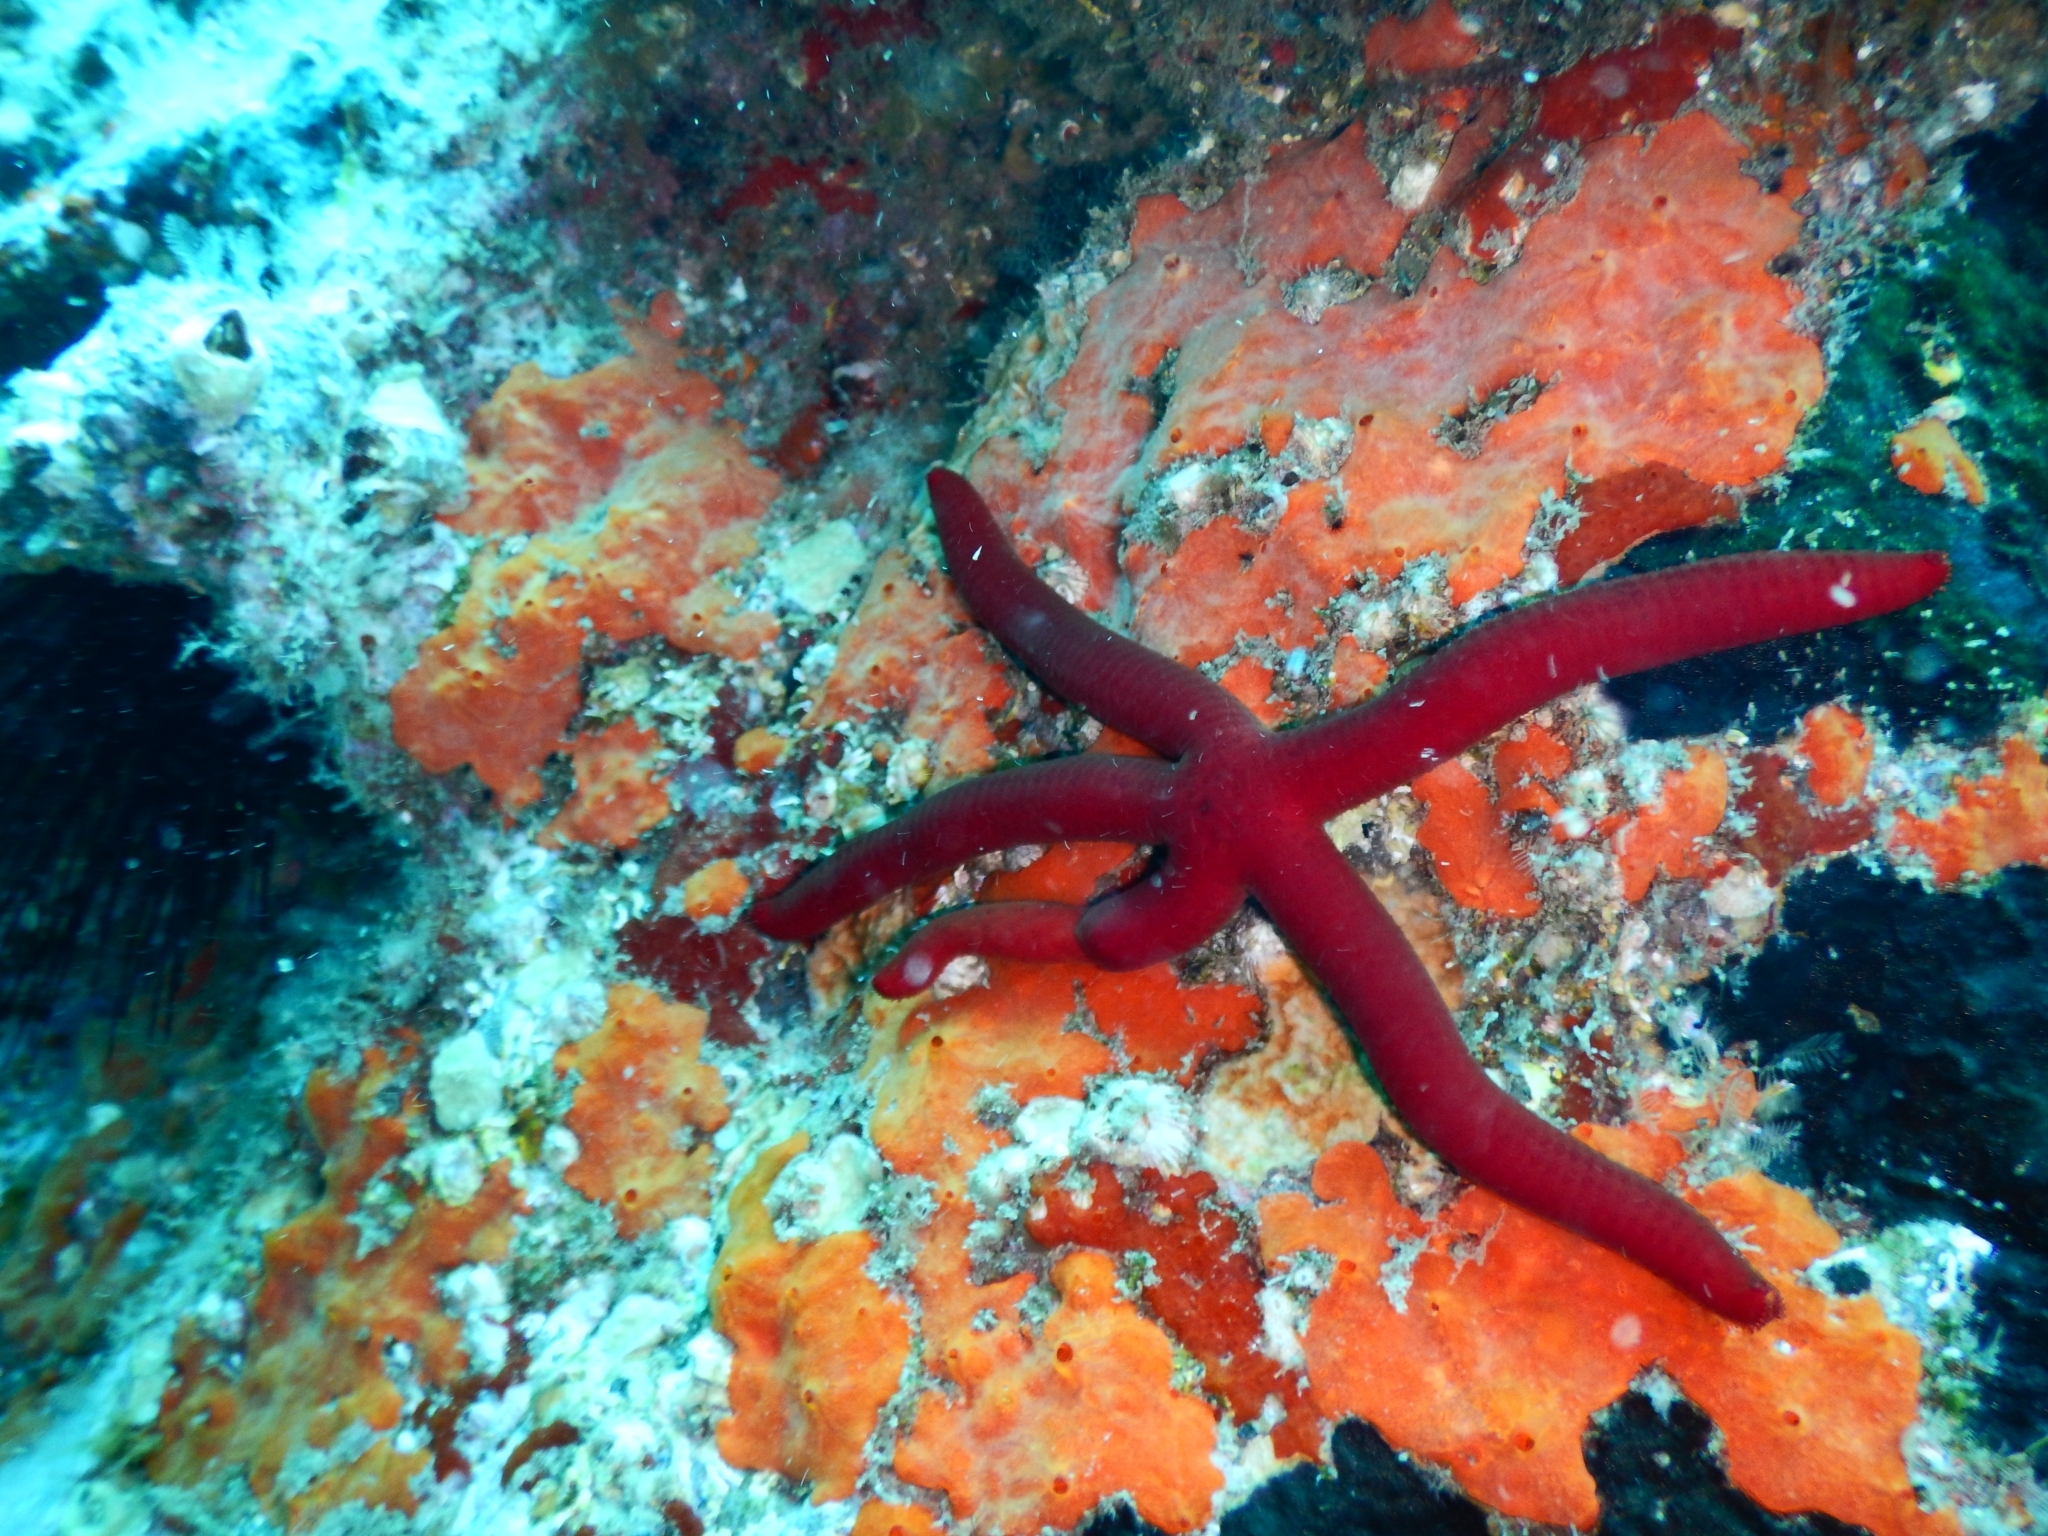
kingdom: Animalia
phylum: Echinodermata
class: Asteroidea
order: Valvatida
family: Ophidiasteridae
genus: Ophidiaster
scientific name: Ophidiaster ophidianus
